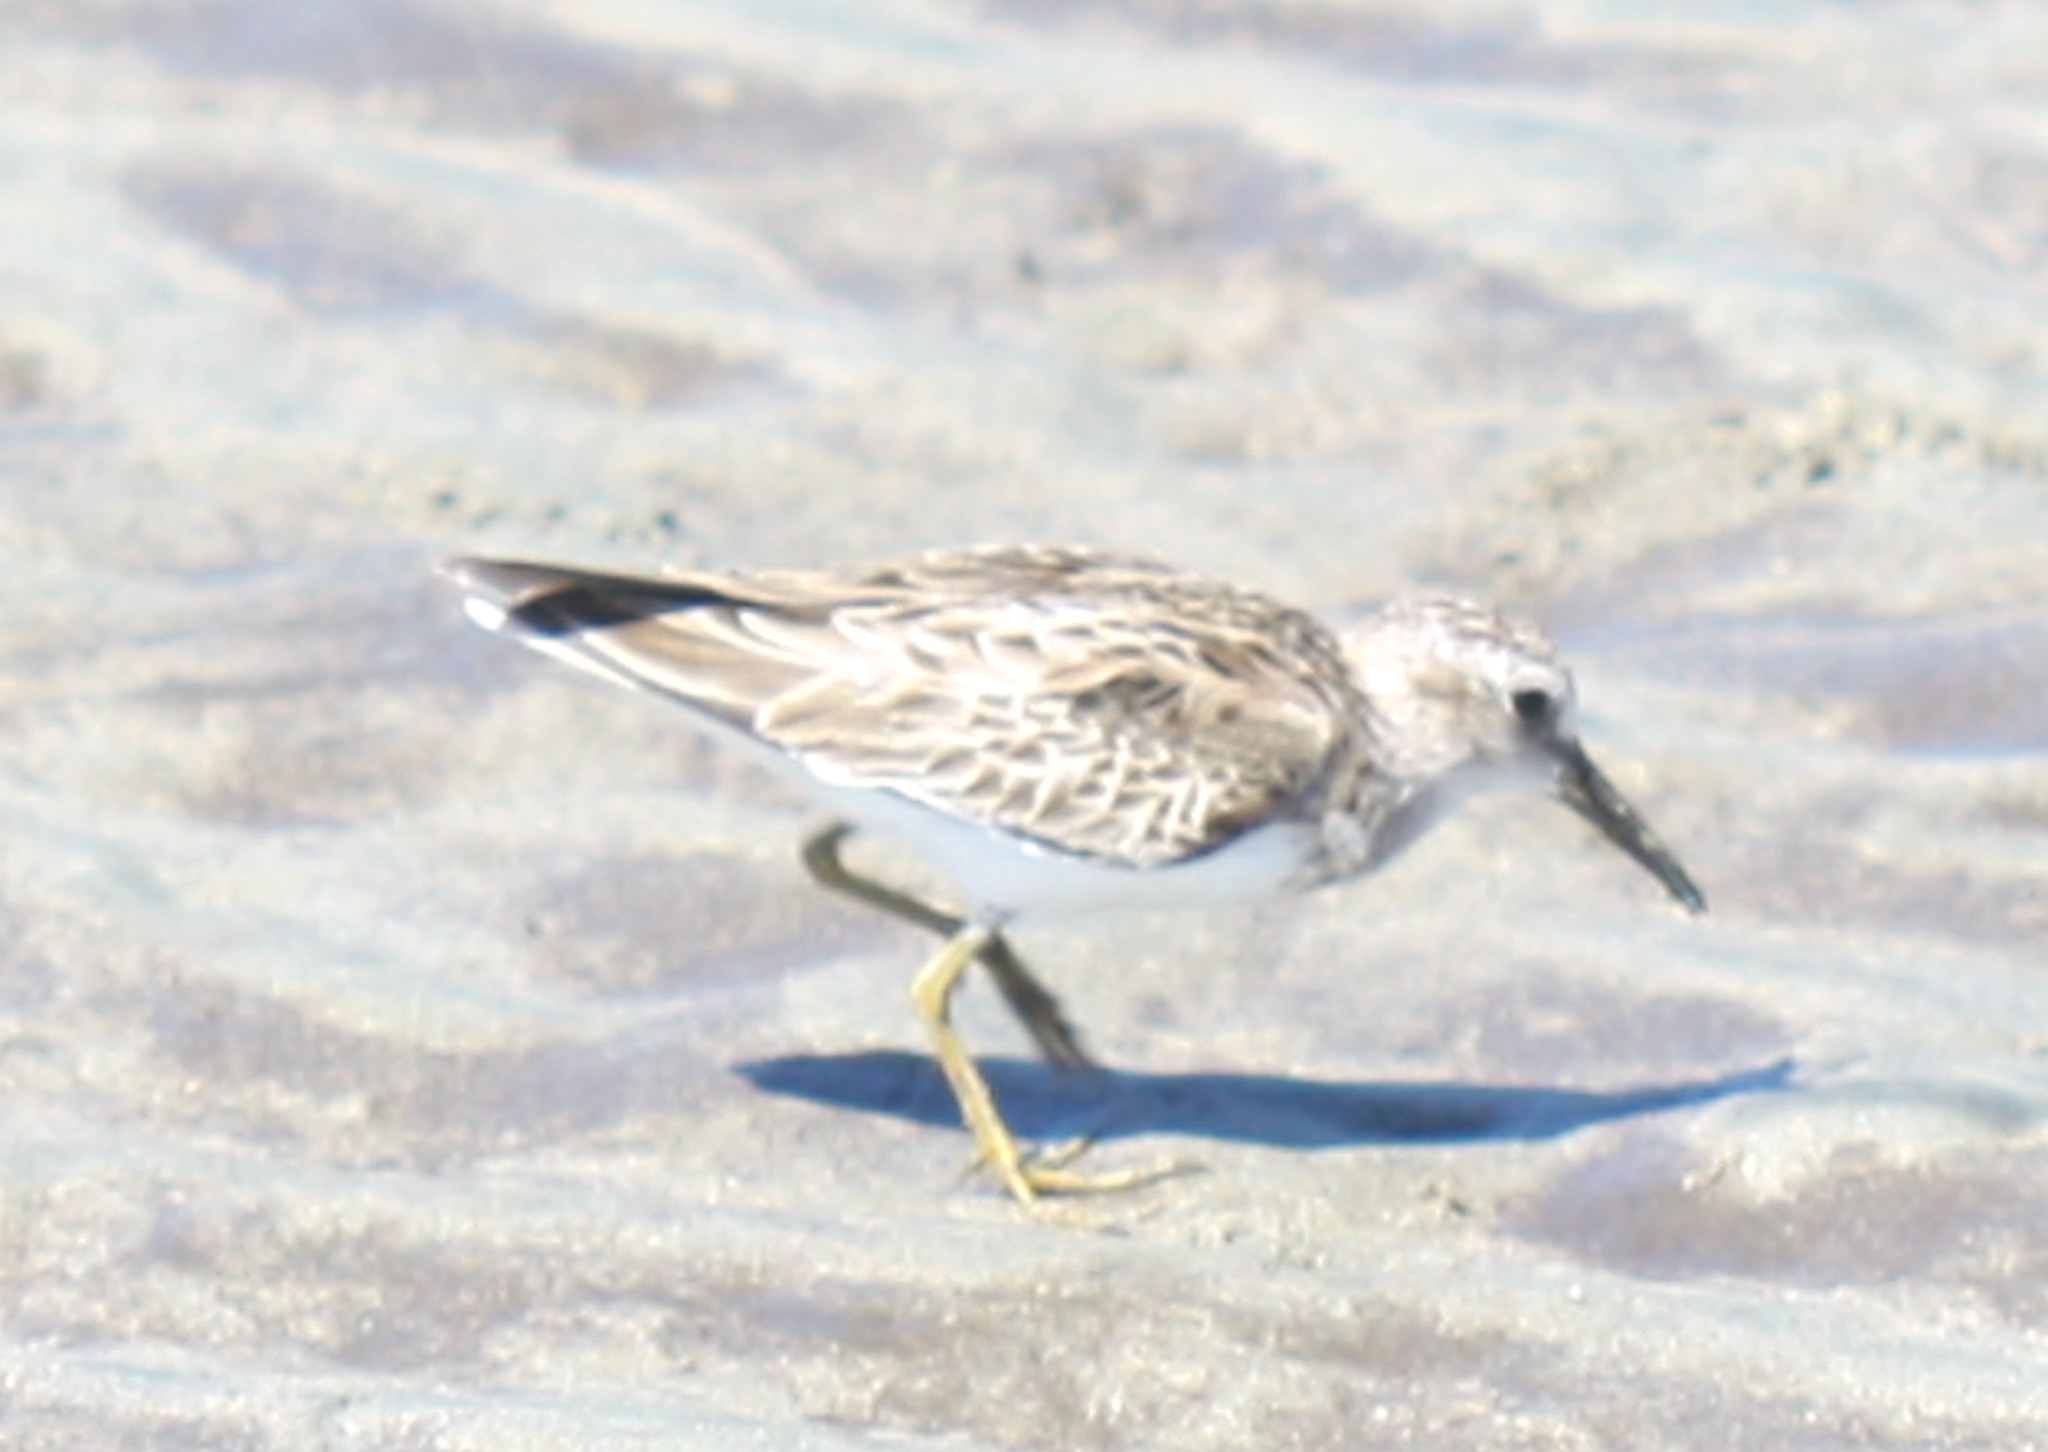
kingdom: Animalia
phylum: Chordata
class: Aves
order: Charadriiformes
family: Scolopacidae
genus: Calidris
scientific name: Calidris minutilla
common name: Least sandpiper
